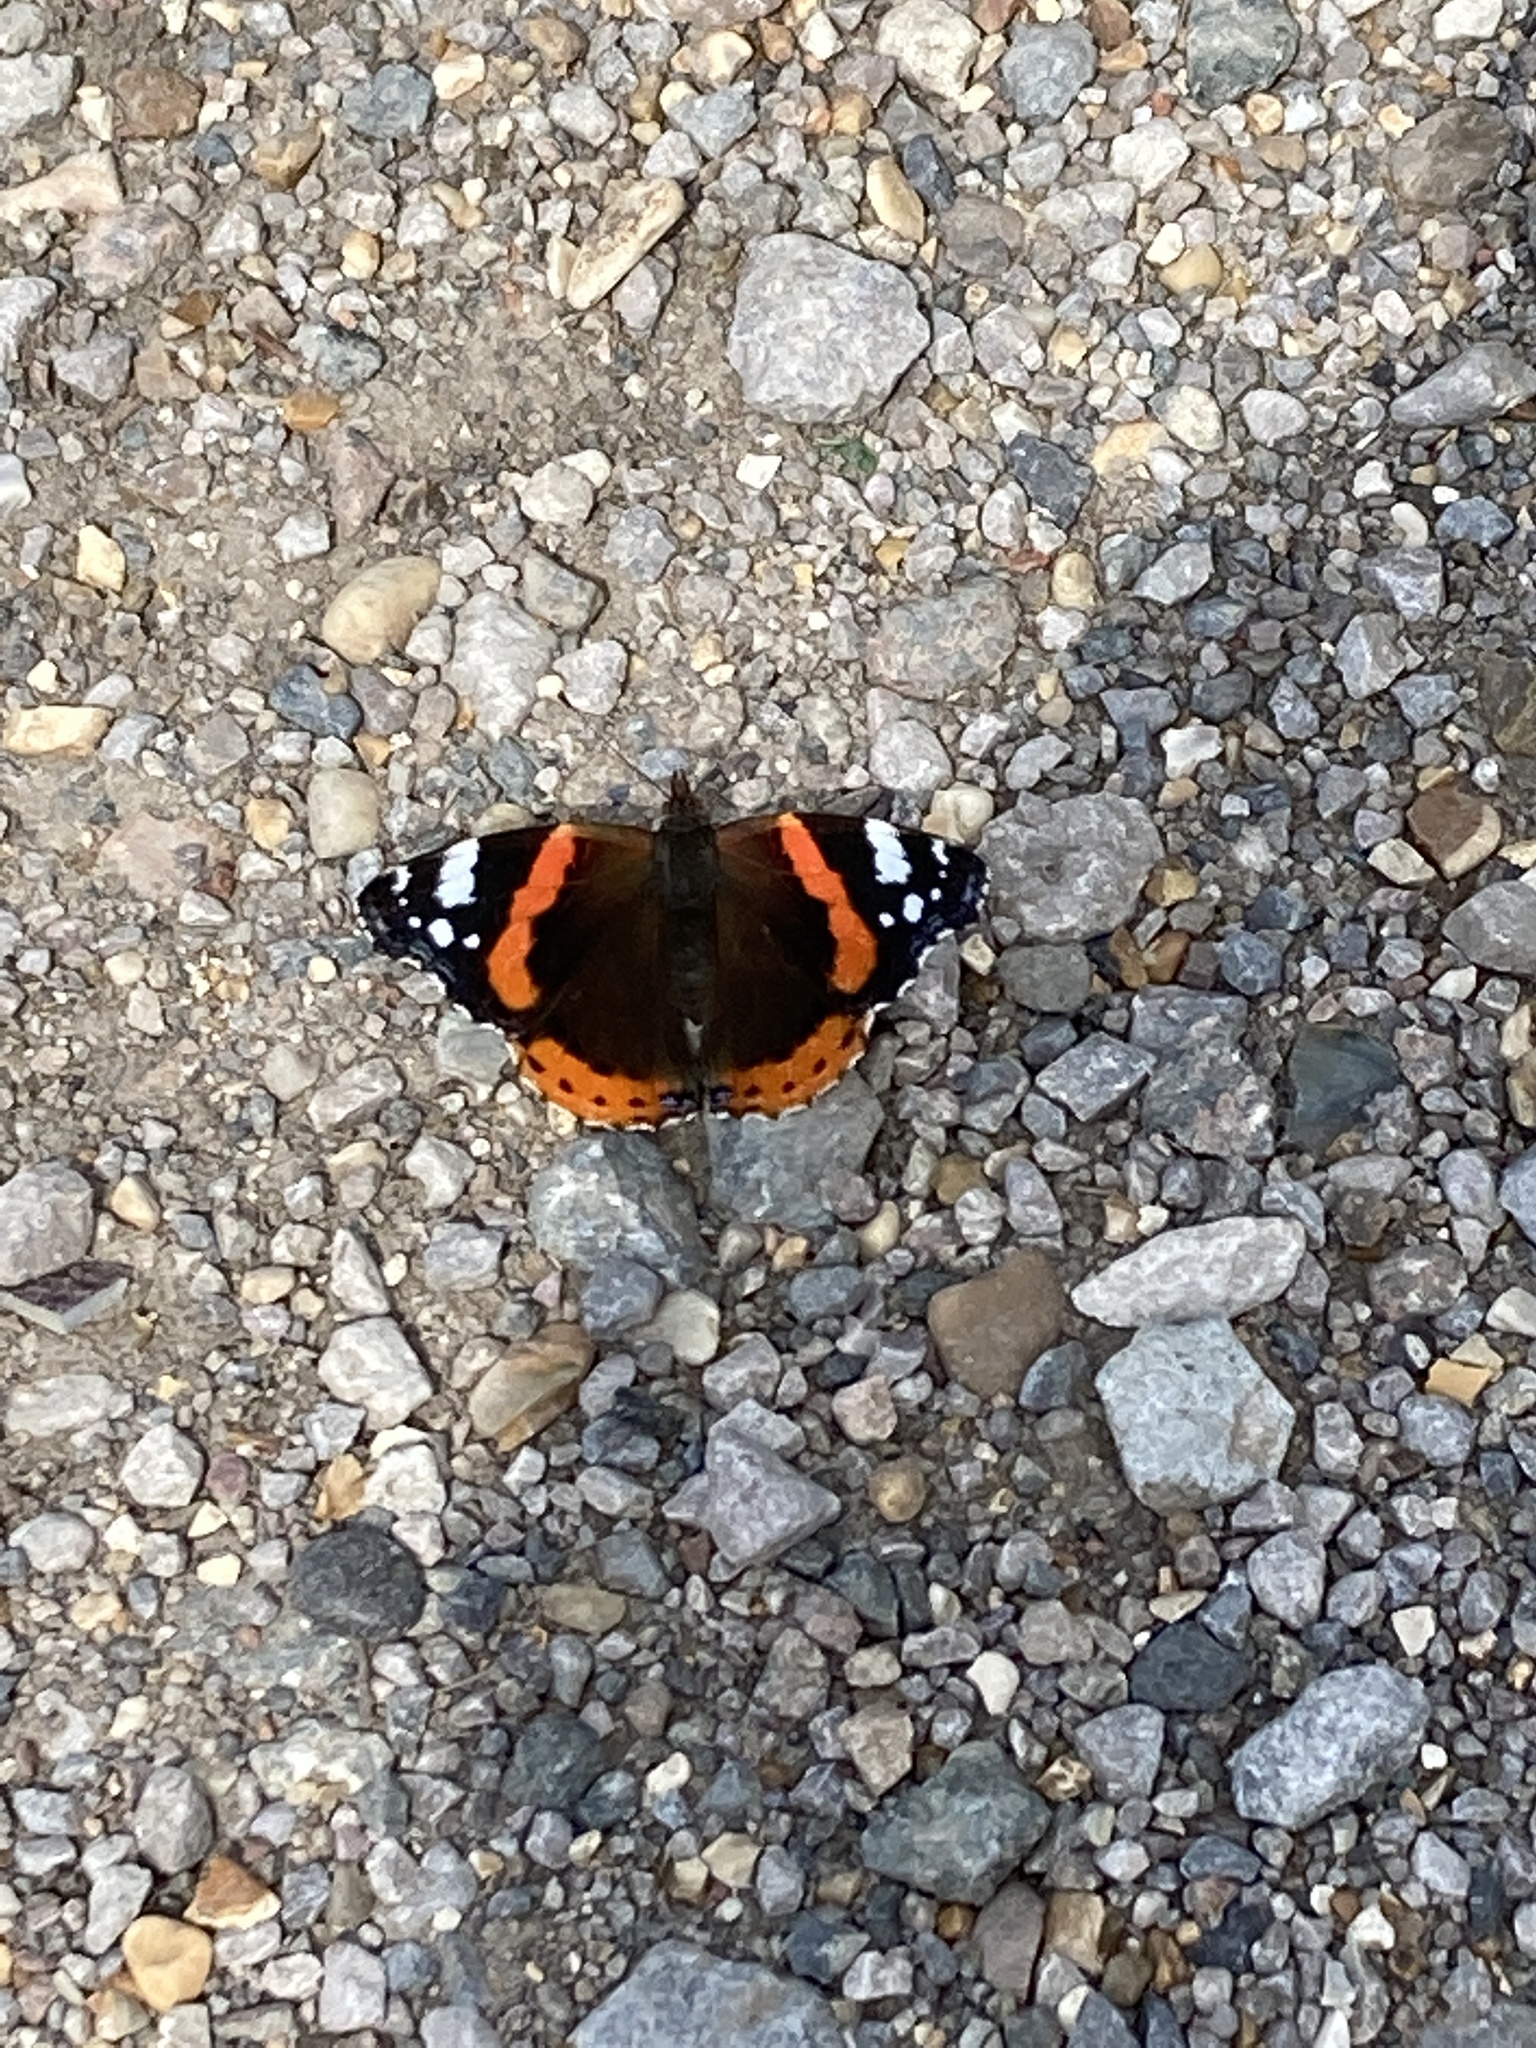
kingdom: Animalia
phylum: Arthropoda
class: Insecta
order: Lepidoptera
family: Nymphalidae
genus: Vanessa
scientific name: Vanessa atalanta
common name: Red admiral
